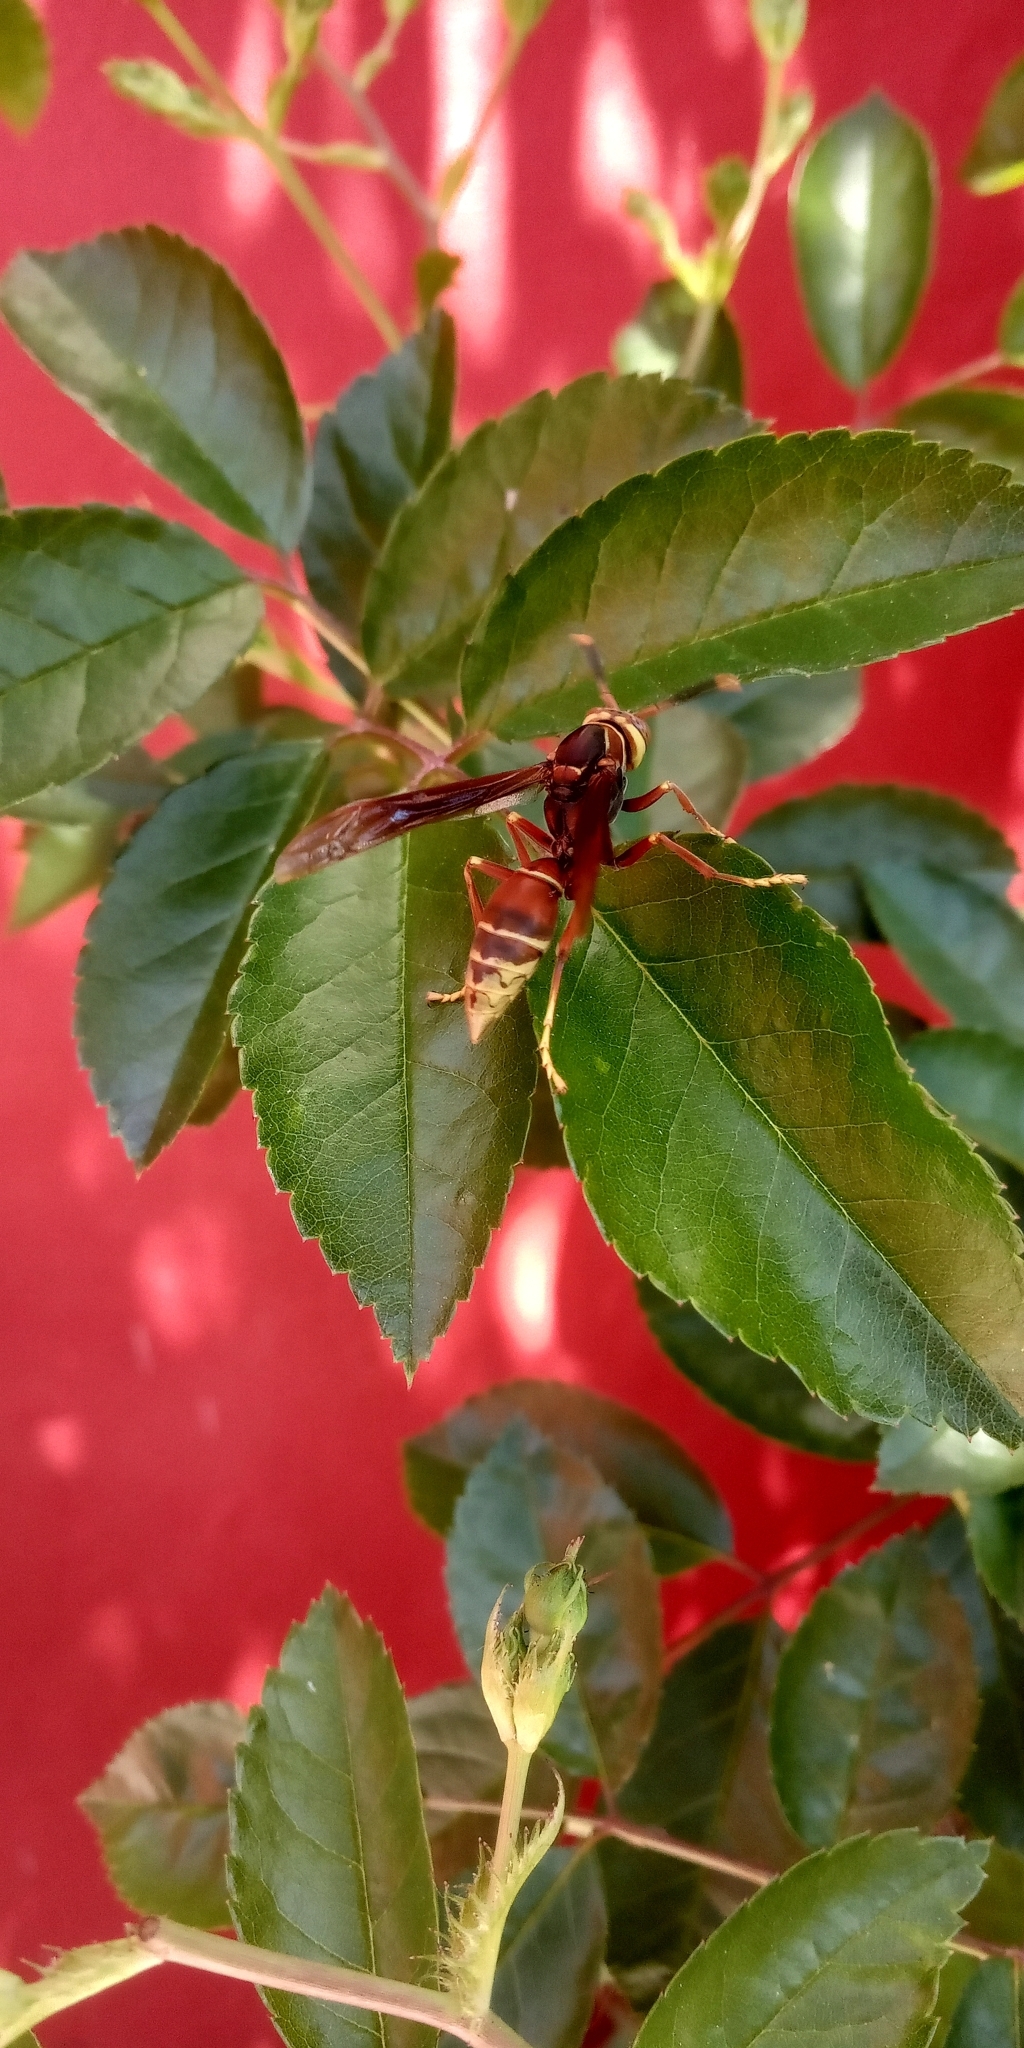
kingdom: Animalia
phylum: Arthropoda
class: Insecta
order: Hymenoptera
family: Eumenidae
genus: Polistes
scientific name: Polistes cavapyta
